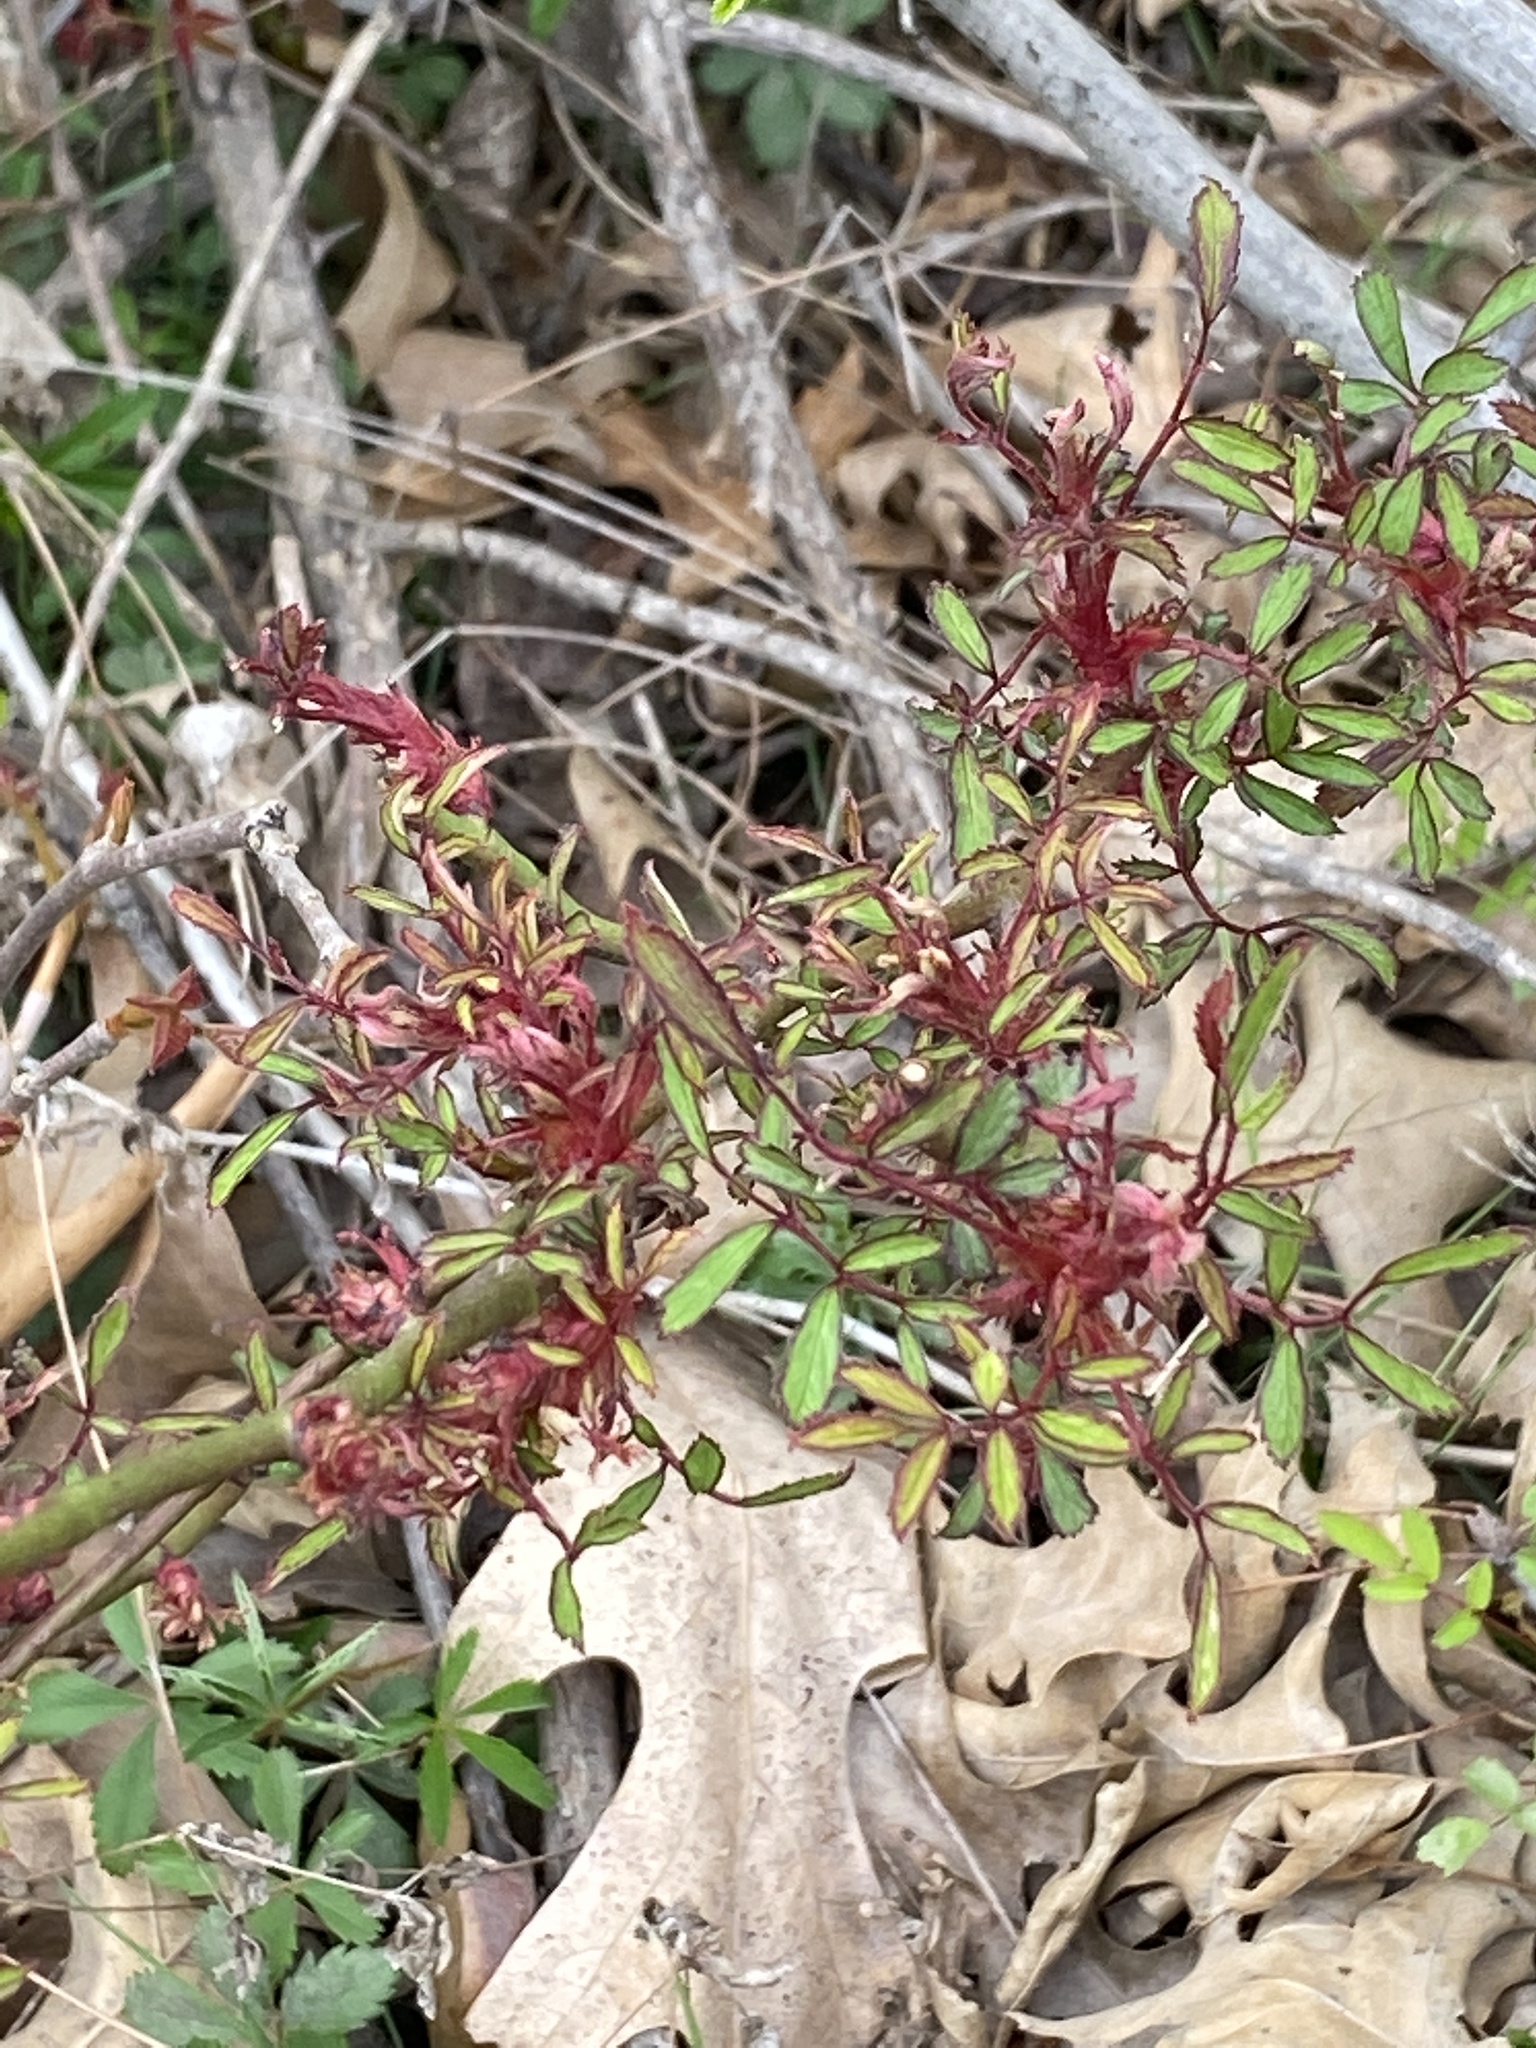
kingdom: Viruses
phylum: Negarnaviricota
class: Ellioviricetes
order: Bunyavirales
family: Fimoviridae
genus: Emaravirus
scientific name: Emaravirus rosae
